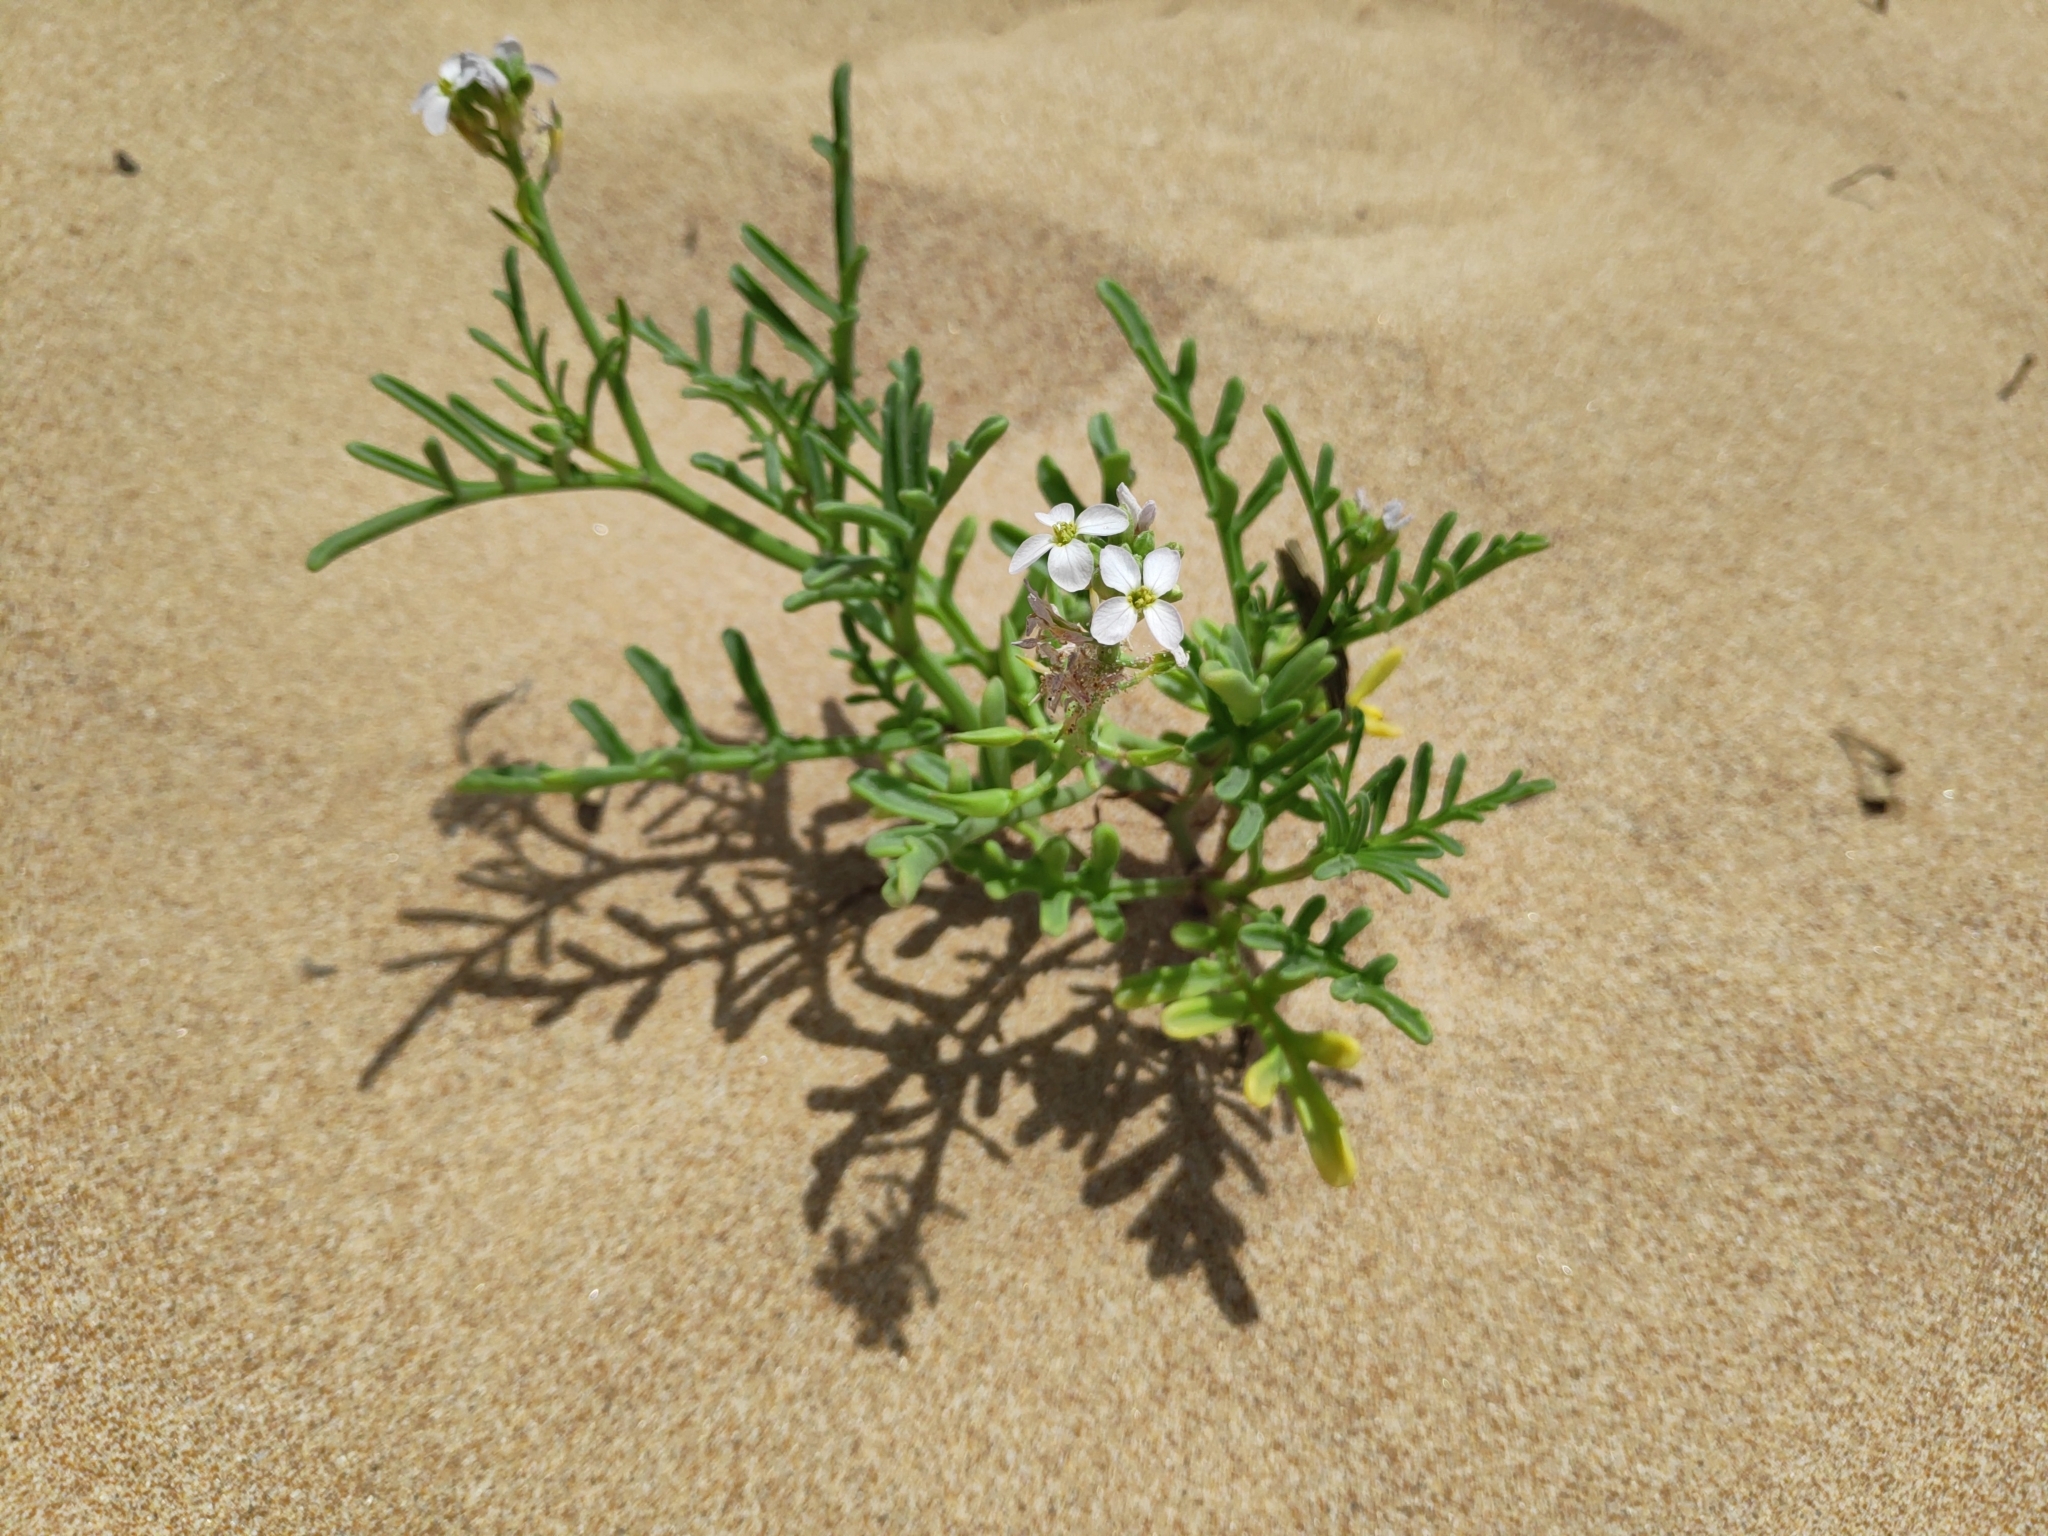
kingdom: Plantae
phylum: Tracheophyta
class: Magnoliopsida
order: Brassicales
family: Brassicaceae
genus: Cakile
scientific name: Cakile maritima
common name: Sea rocket
